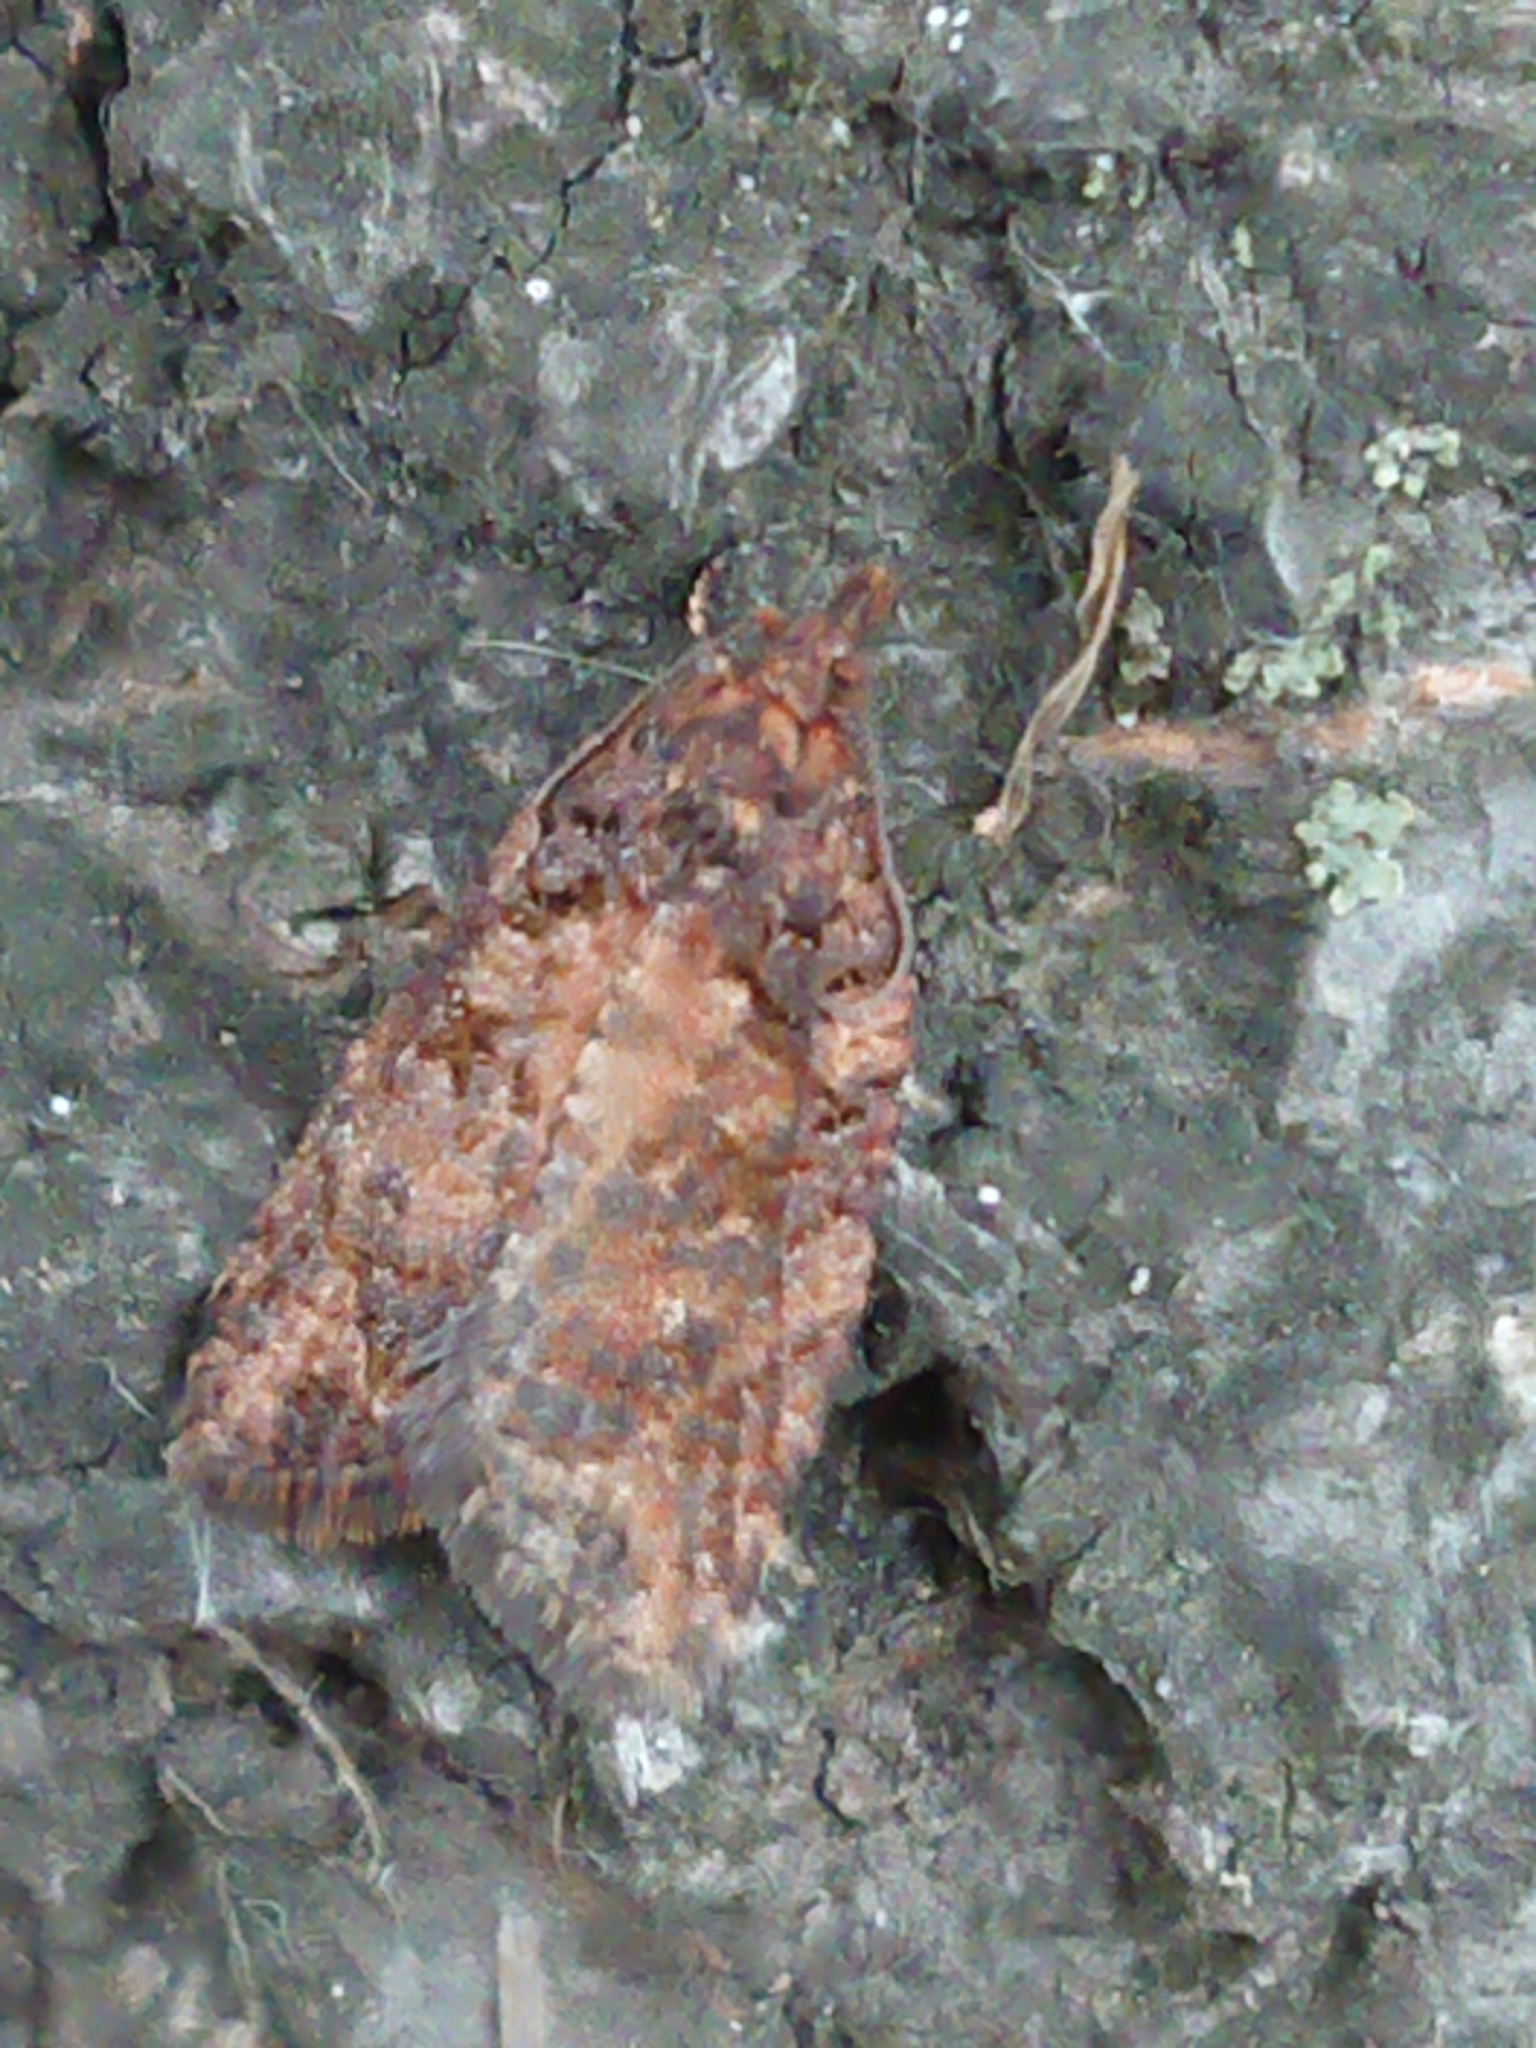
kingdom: Animalia
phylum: Arthropoda
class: Insecta
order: Lepidoptera
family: Tortricidae
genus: Capua
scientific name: Capua intractana
